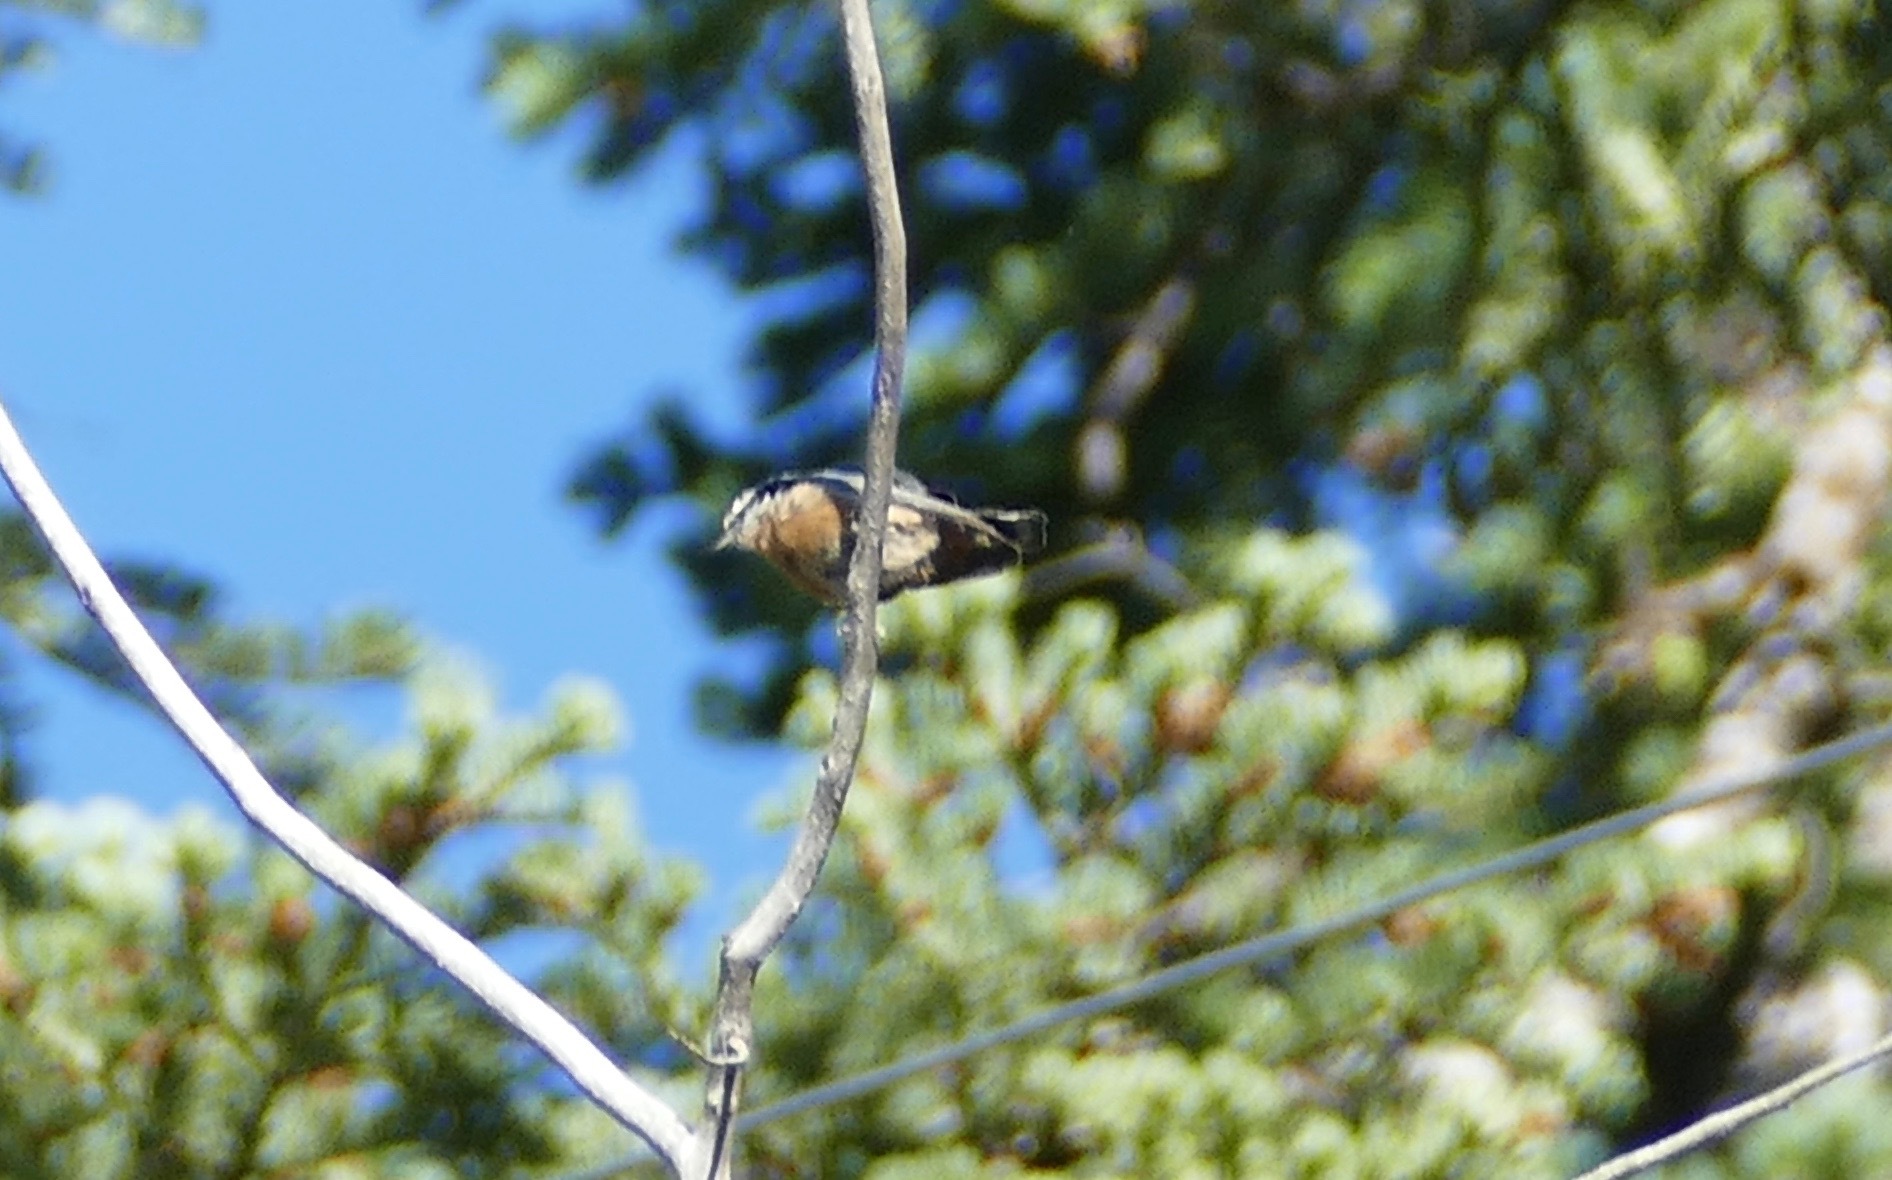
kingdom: Animalia
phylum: Chordata
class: Aves
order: Passeriformes
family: Sittidae
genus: Sitta
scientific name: Sitta canadensis
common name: Red-breasted nuthatch
